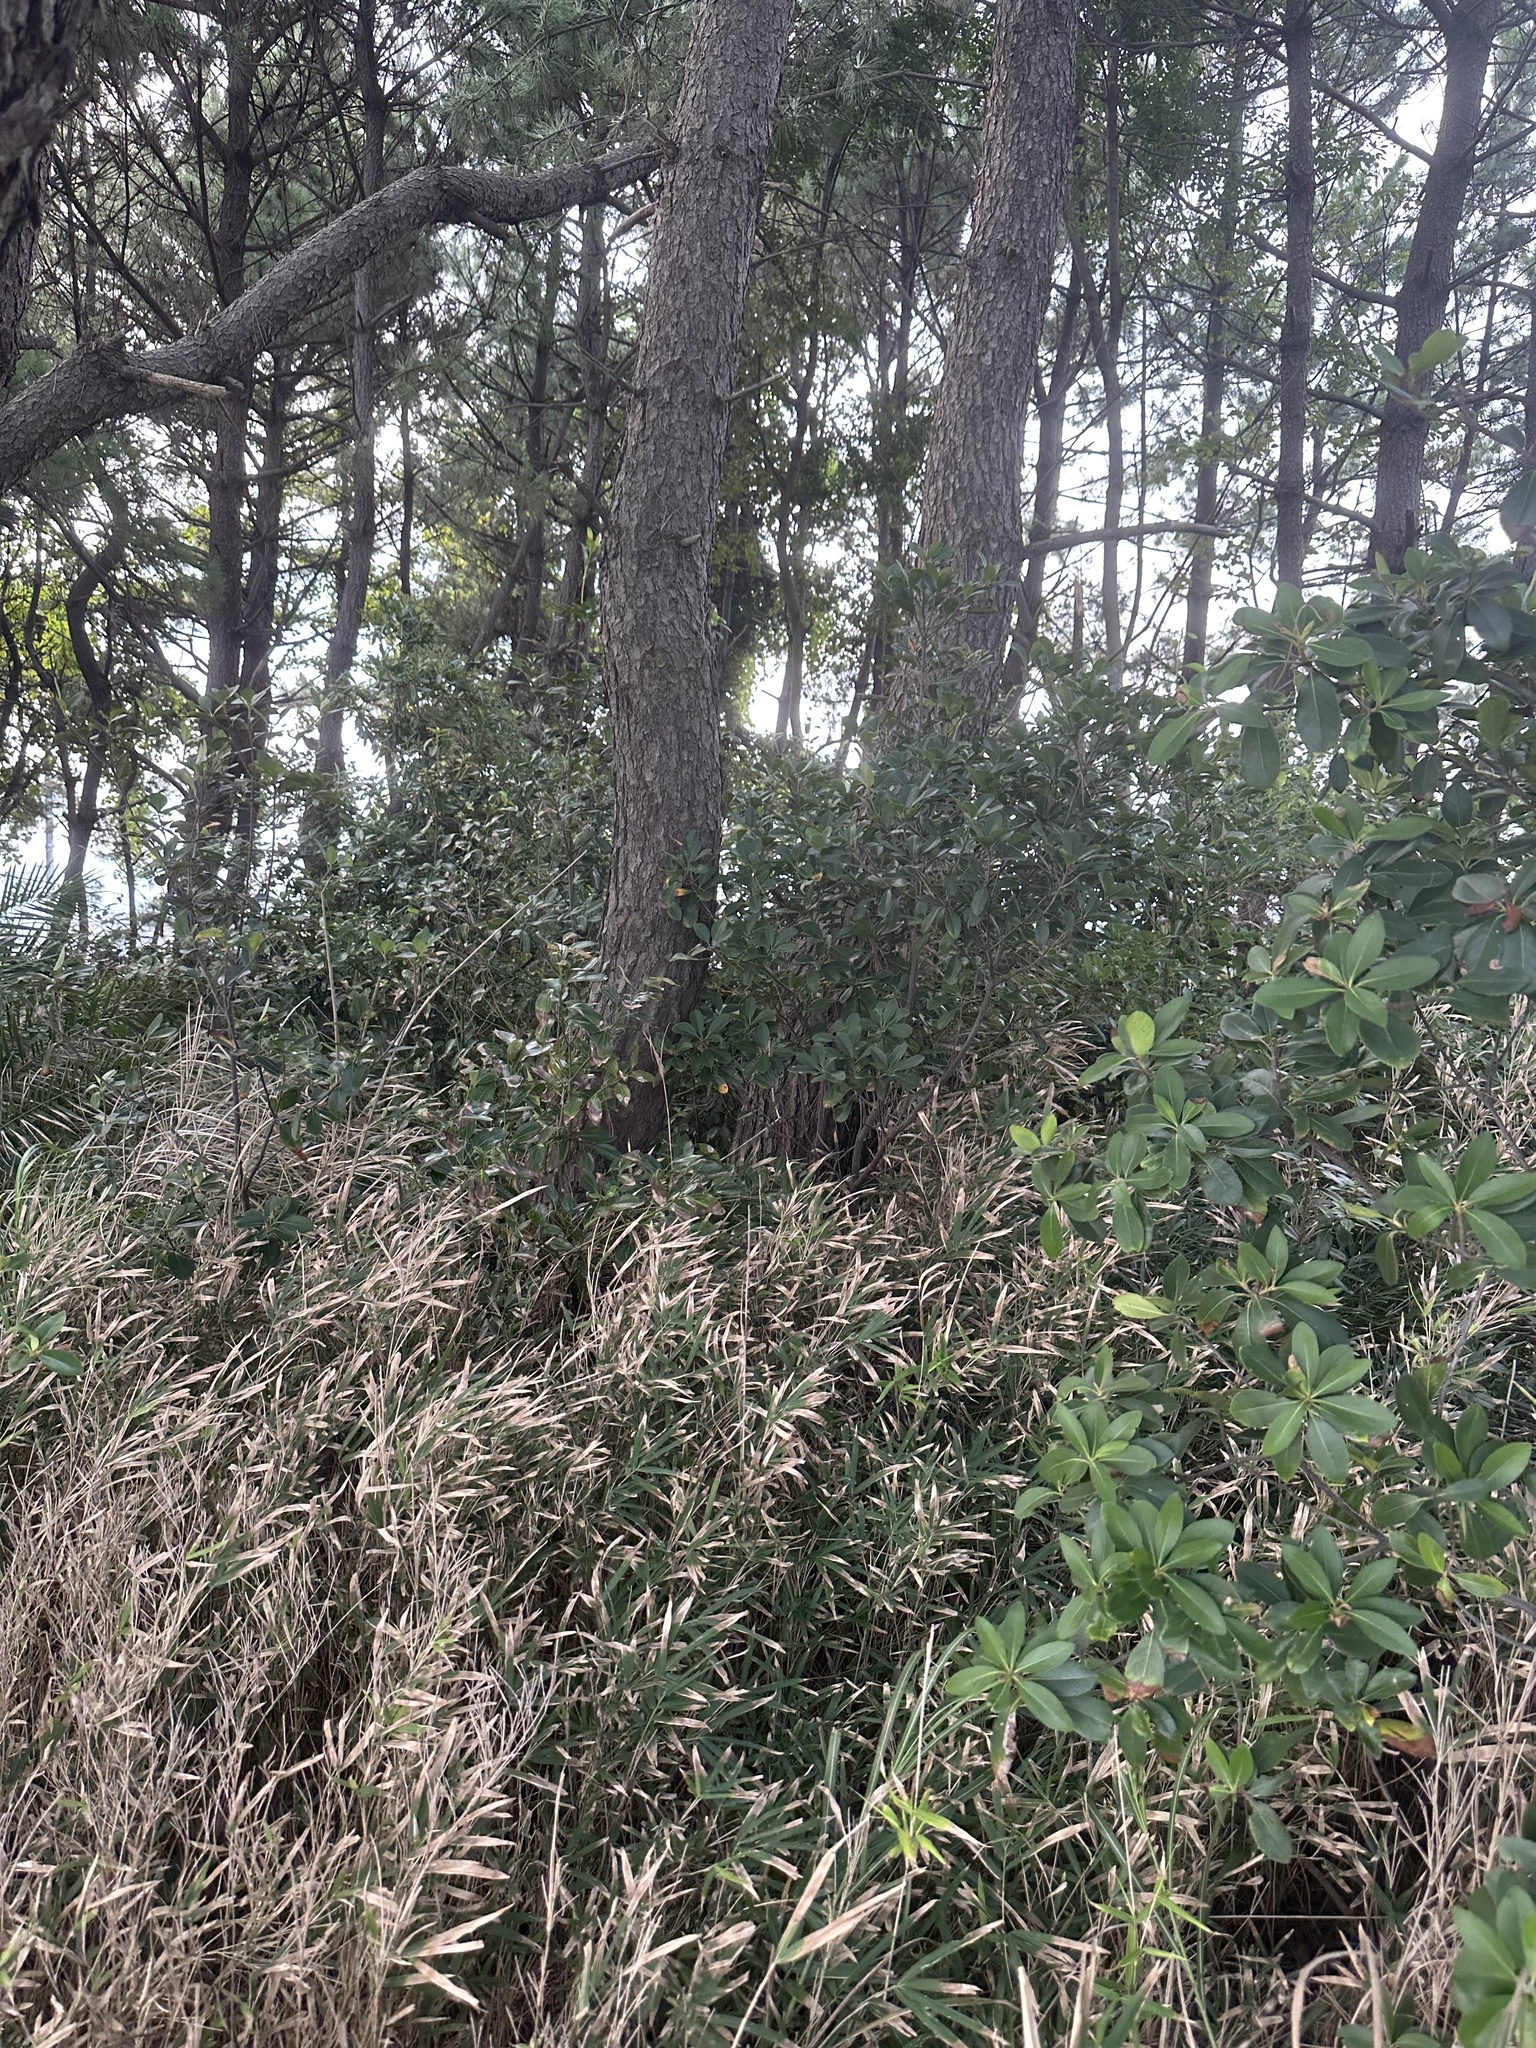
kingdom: Animalia
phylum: Arthropoda
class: Insecta
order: Orthoptera
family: Mogoplistidae
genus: Ornebius
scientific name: Ornebius kanetataki
